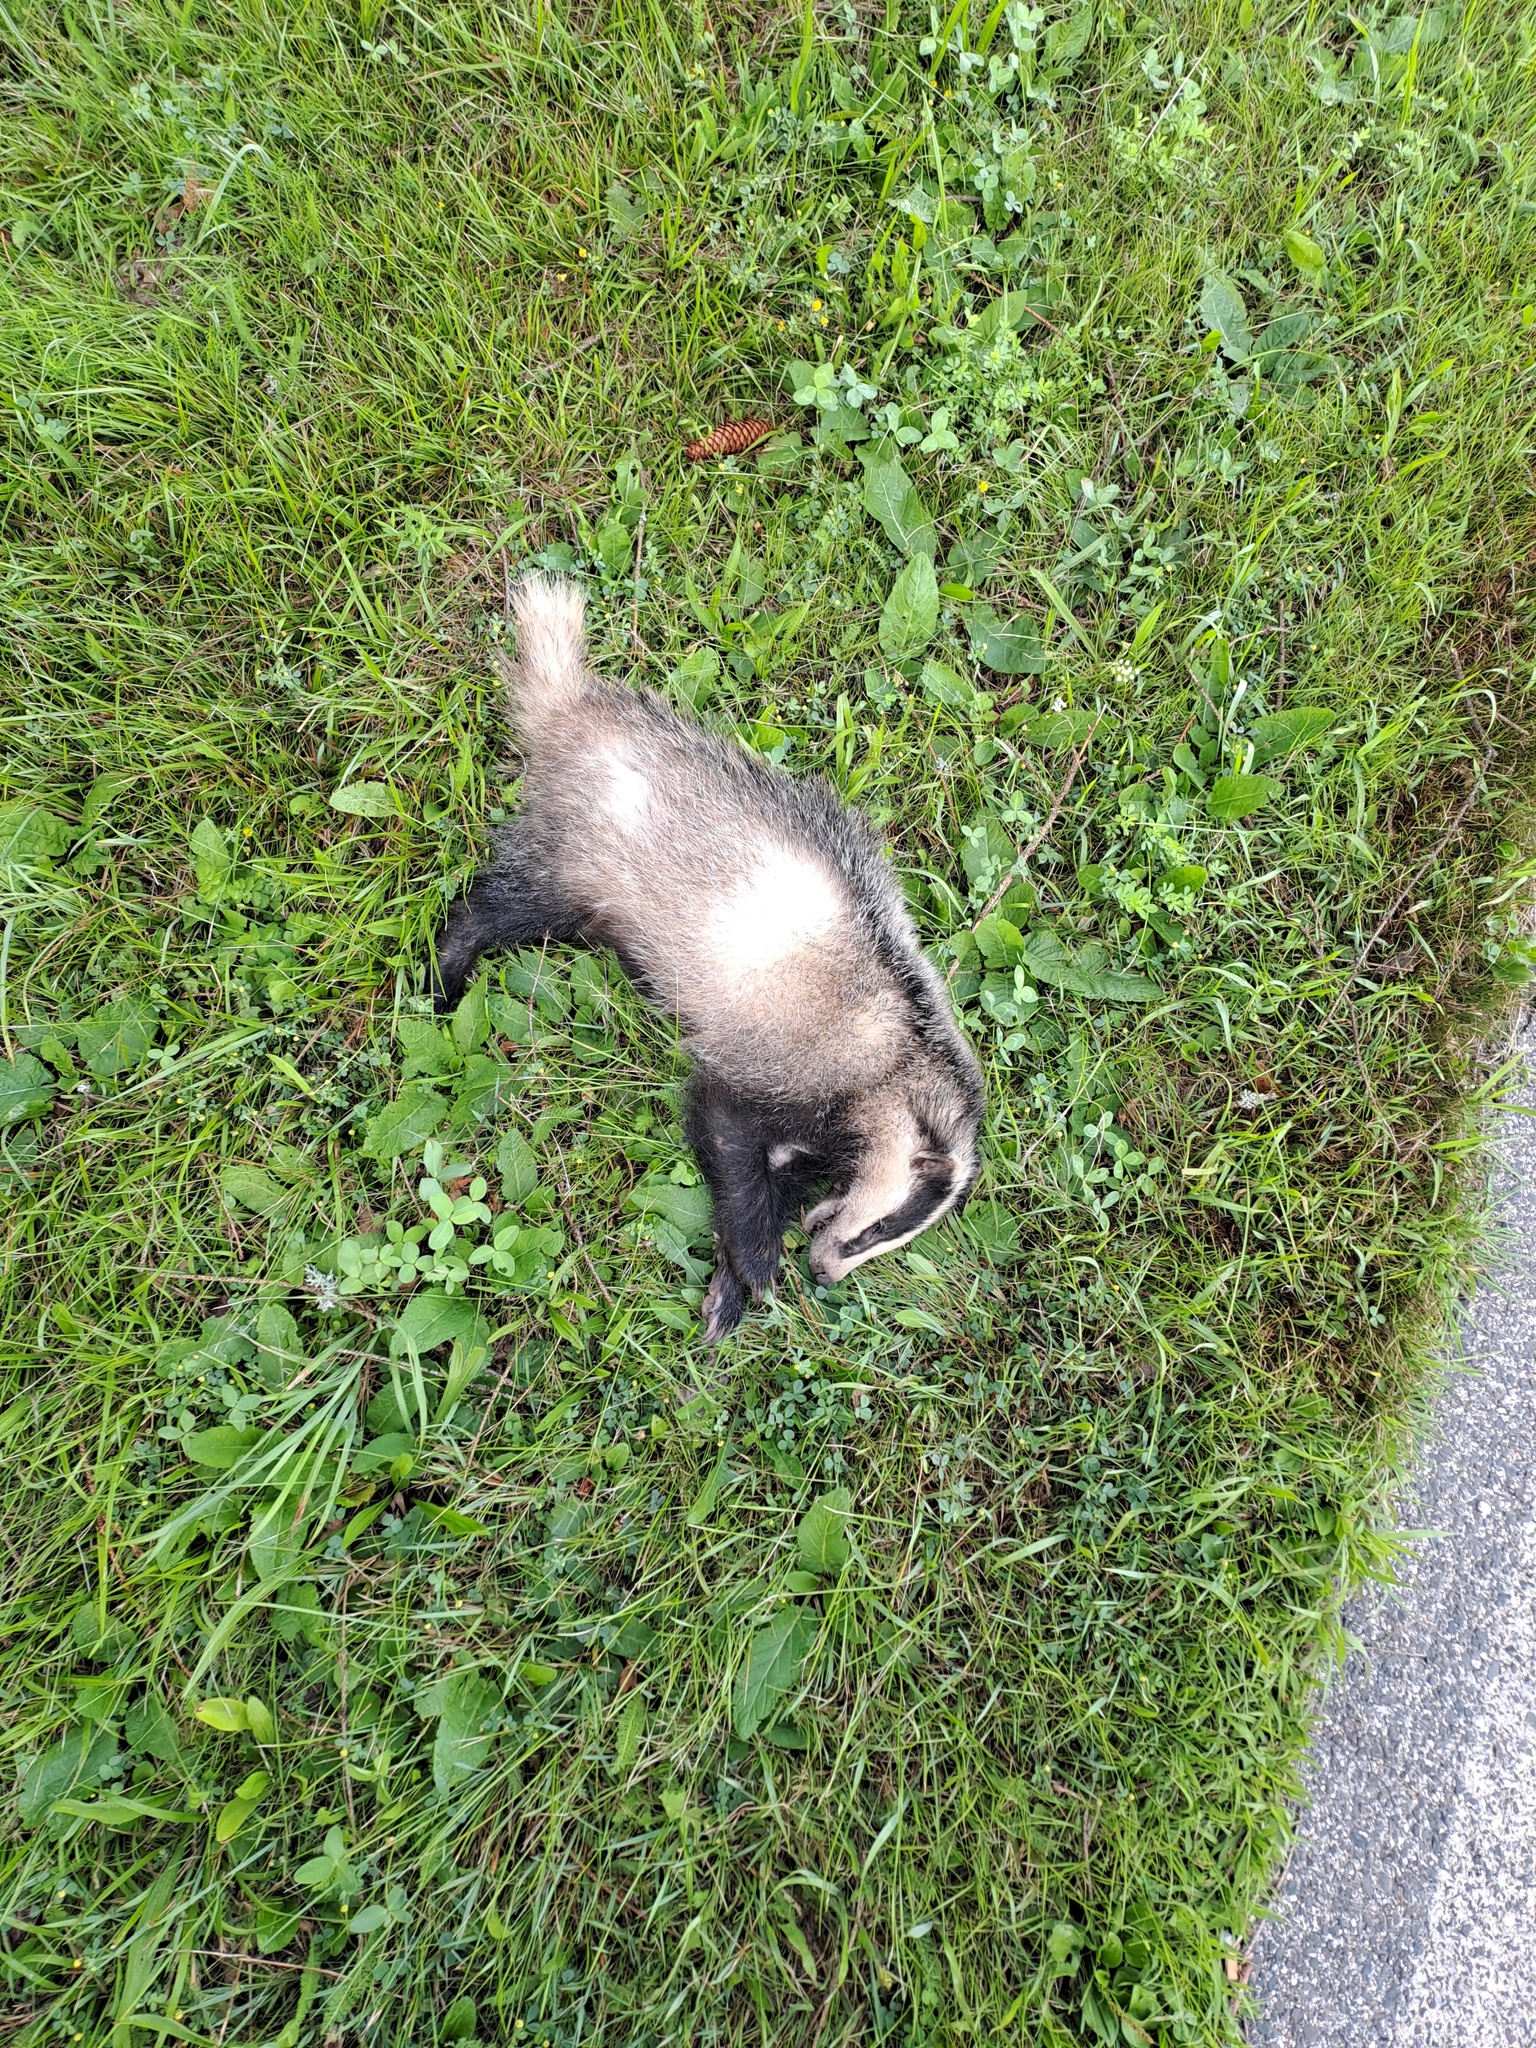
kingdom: Animalia
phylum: Chordata
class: Mammalia
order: Carnivora
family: Mustelidae
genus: Meles
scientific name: Meles meles
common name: Eurasian badger
